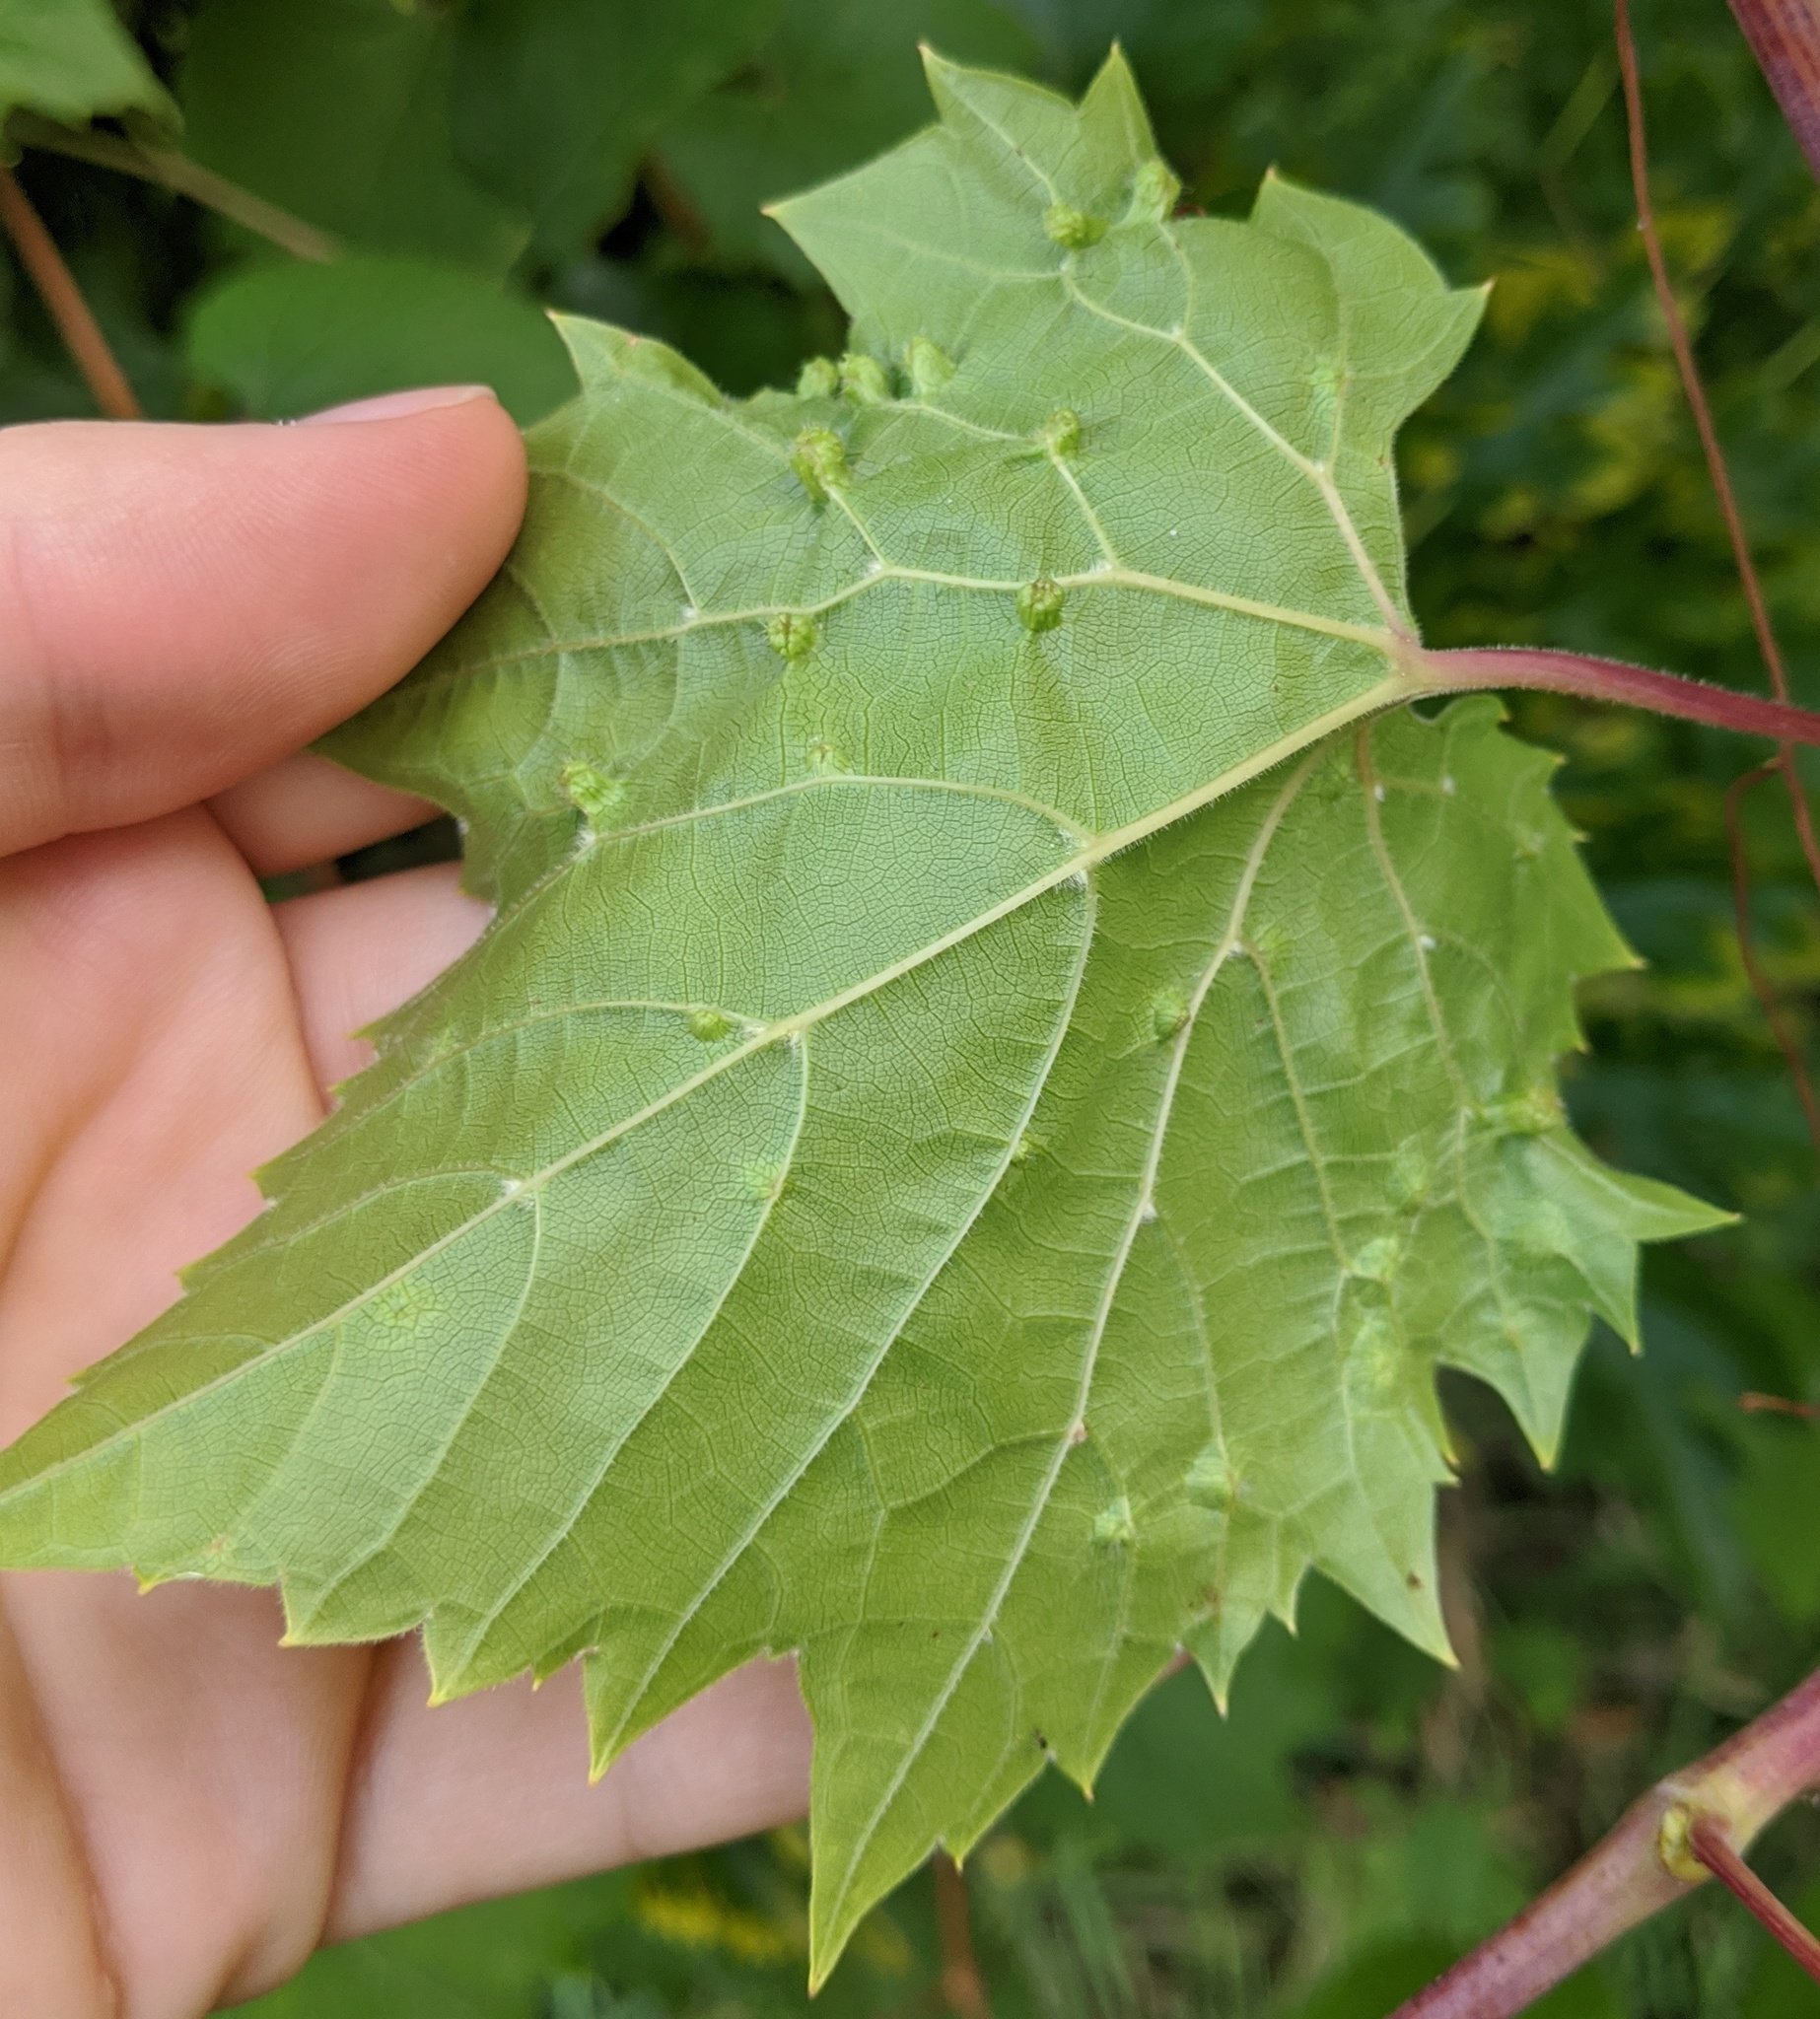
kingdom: Animalia
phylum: Arthropoda
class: Insecta
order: Hemiptera
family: Phylloxeridae
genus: Daktulosphaira
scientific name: Daktulosphaira vitifoliae
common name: Grape phylloxera
